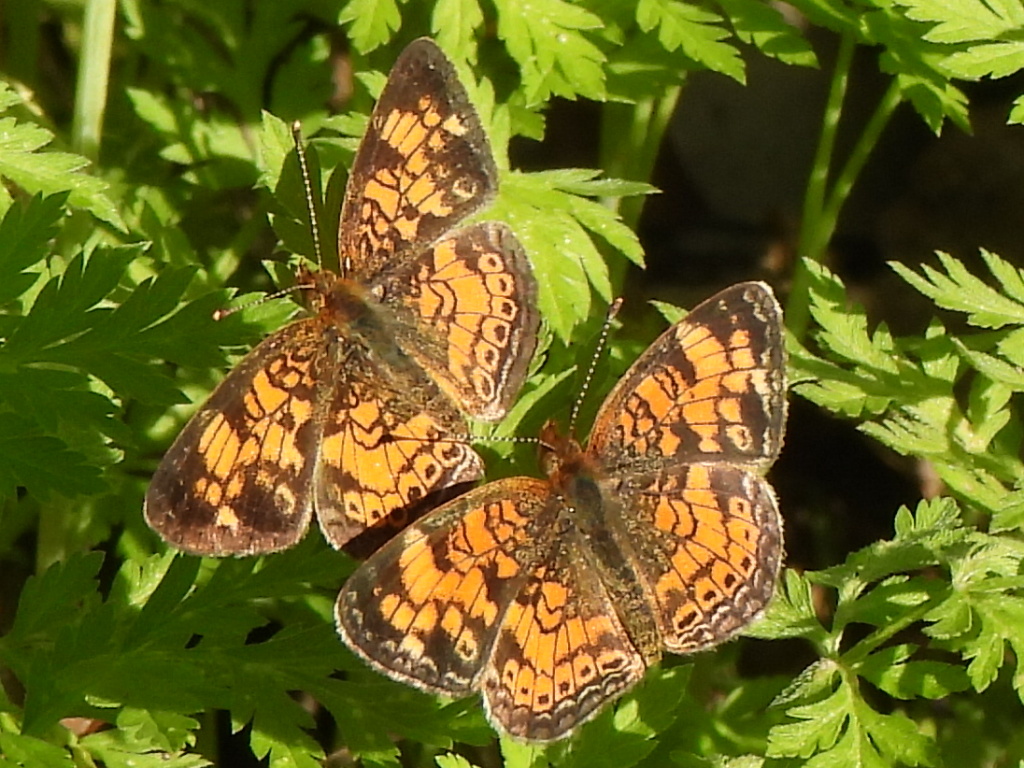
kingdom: Animalia
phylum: Arthropoda
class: Insecta
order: Lepidoptera
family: Nymphalidae
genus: Phyciodes
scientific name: Phyciodes tharos
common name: Pearl crescent
